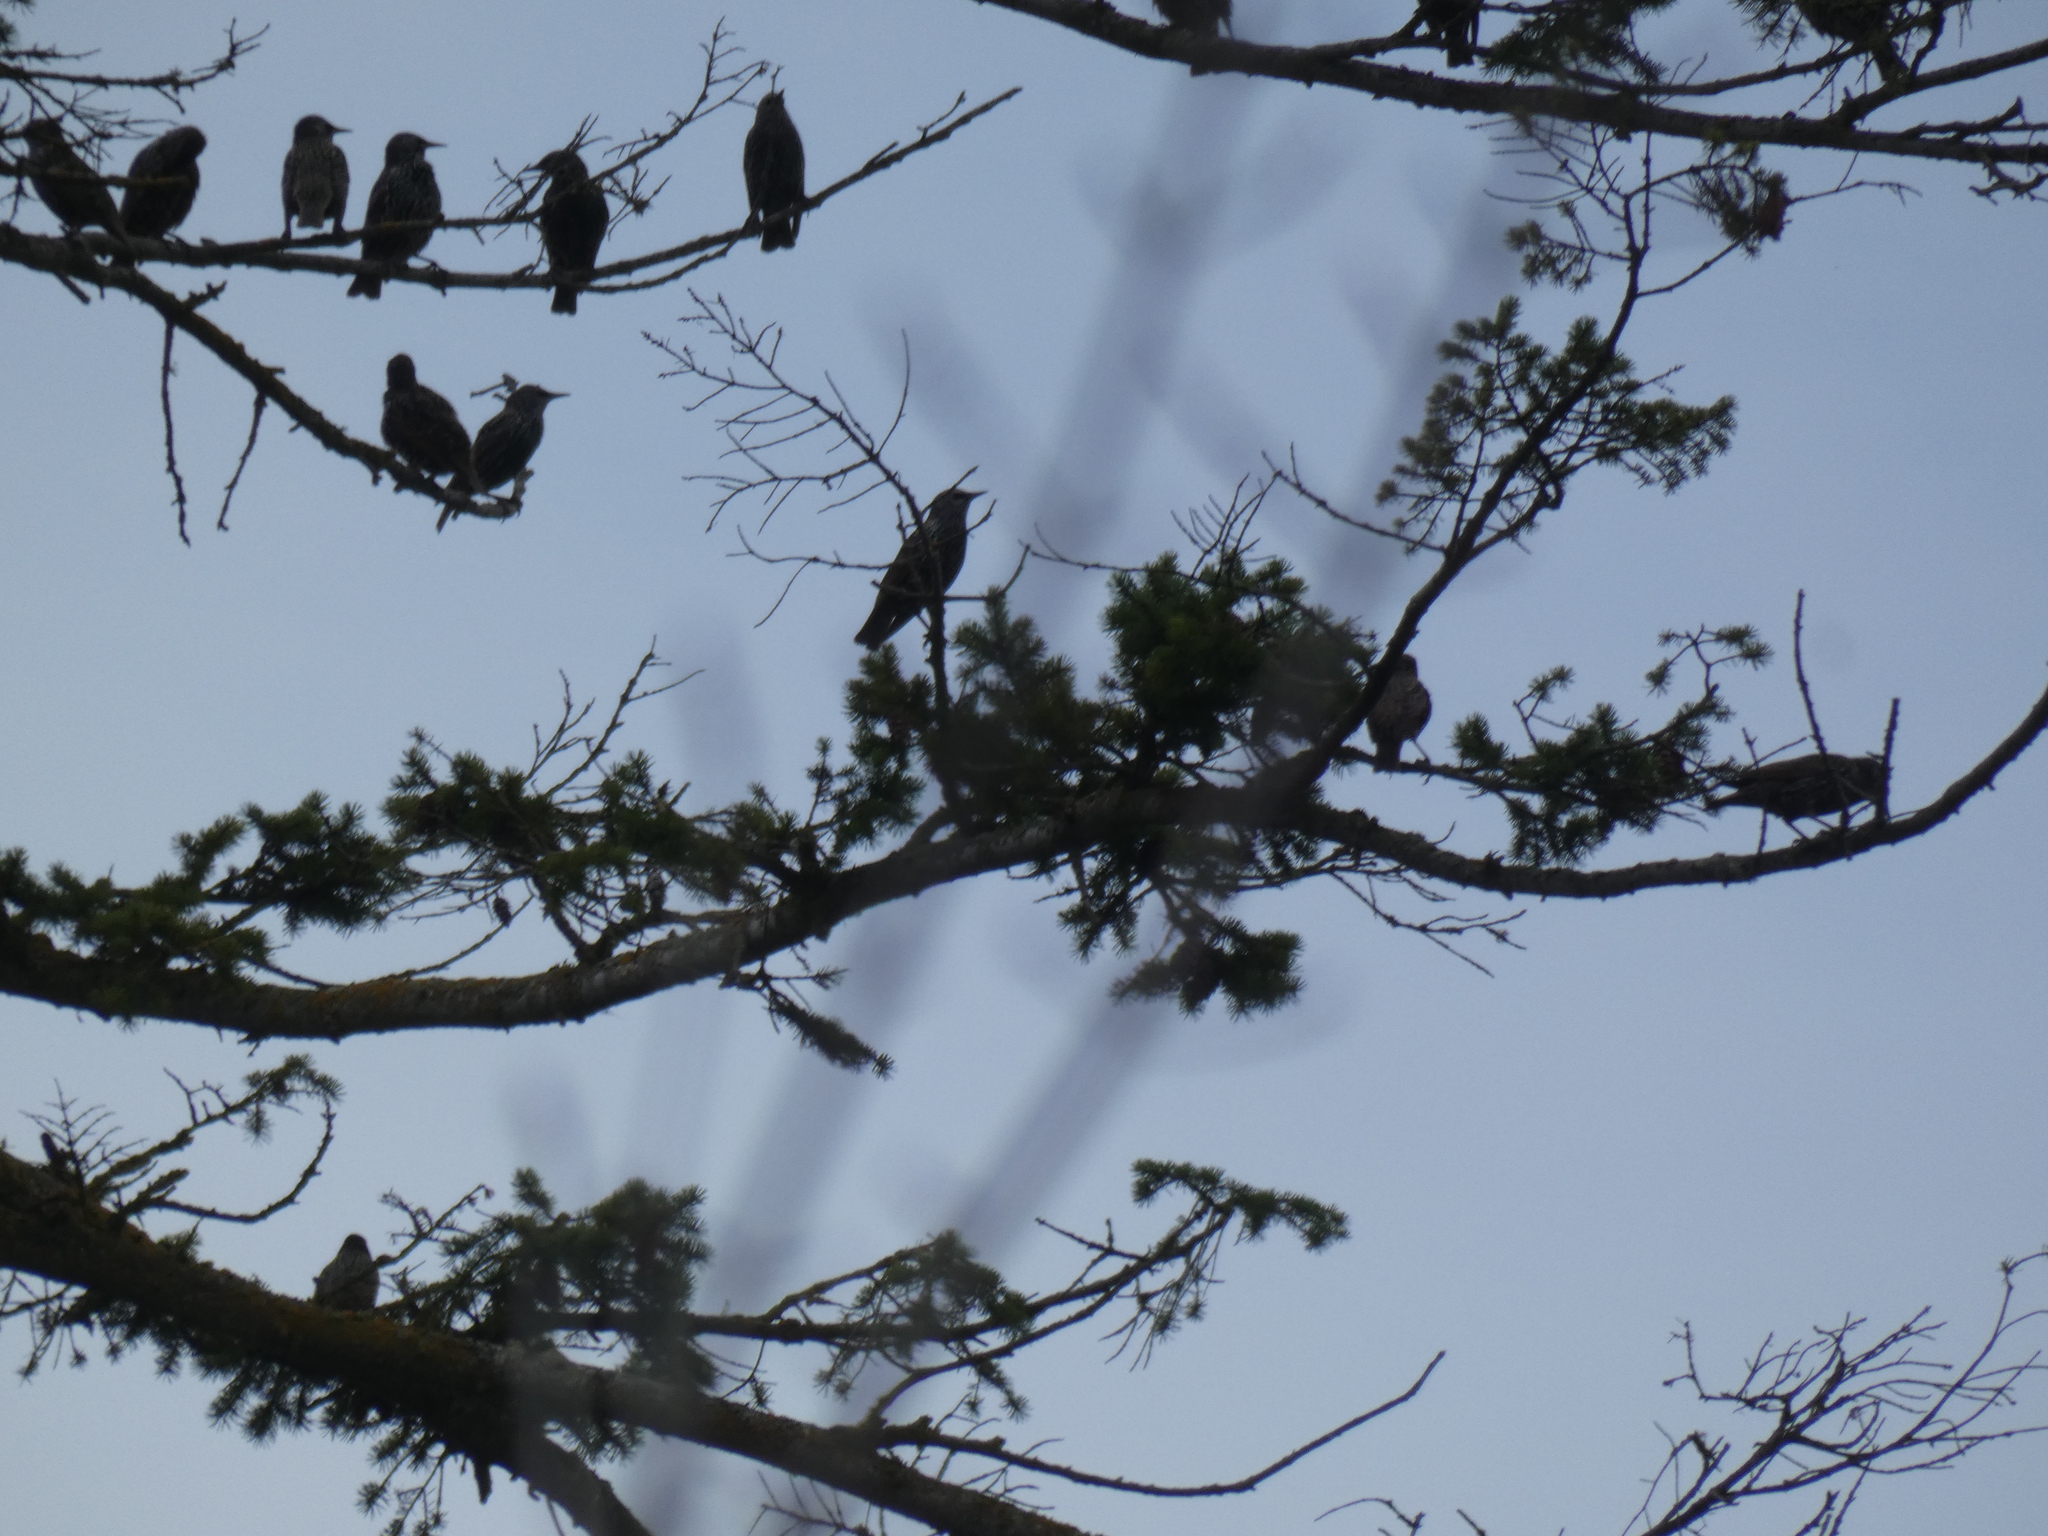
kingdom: Animalia
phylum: Chordata
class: Aves
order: Passeriformes
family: Sturnidae
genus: Sturnus
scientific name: Sturnus vulgaris
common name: Common starling
